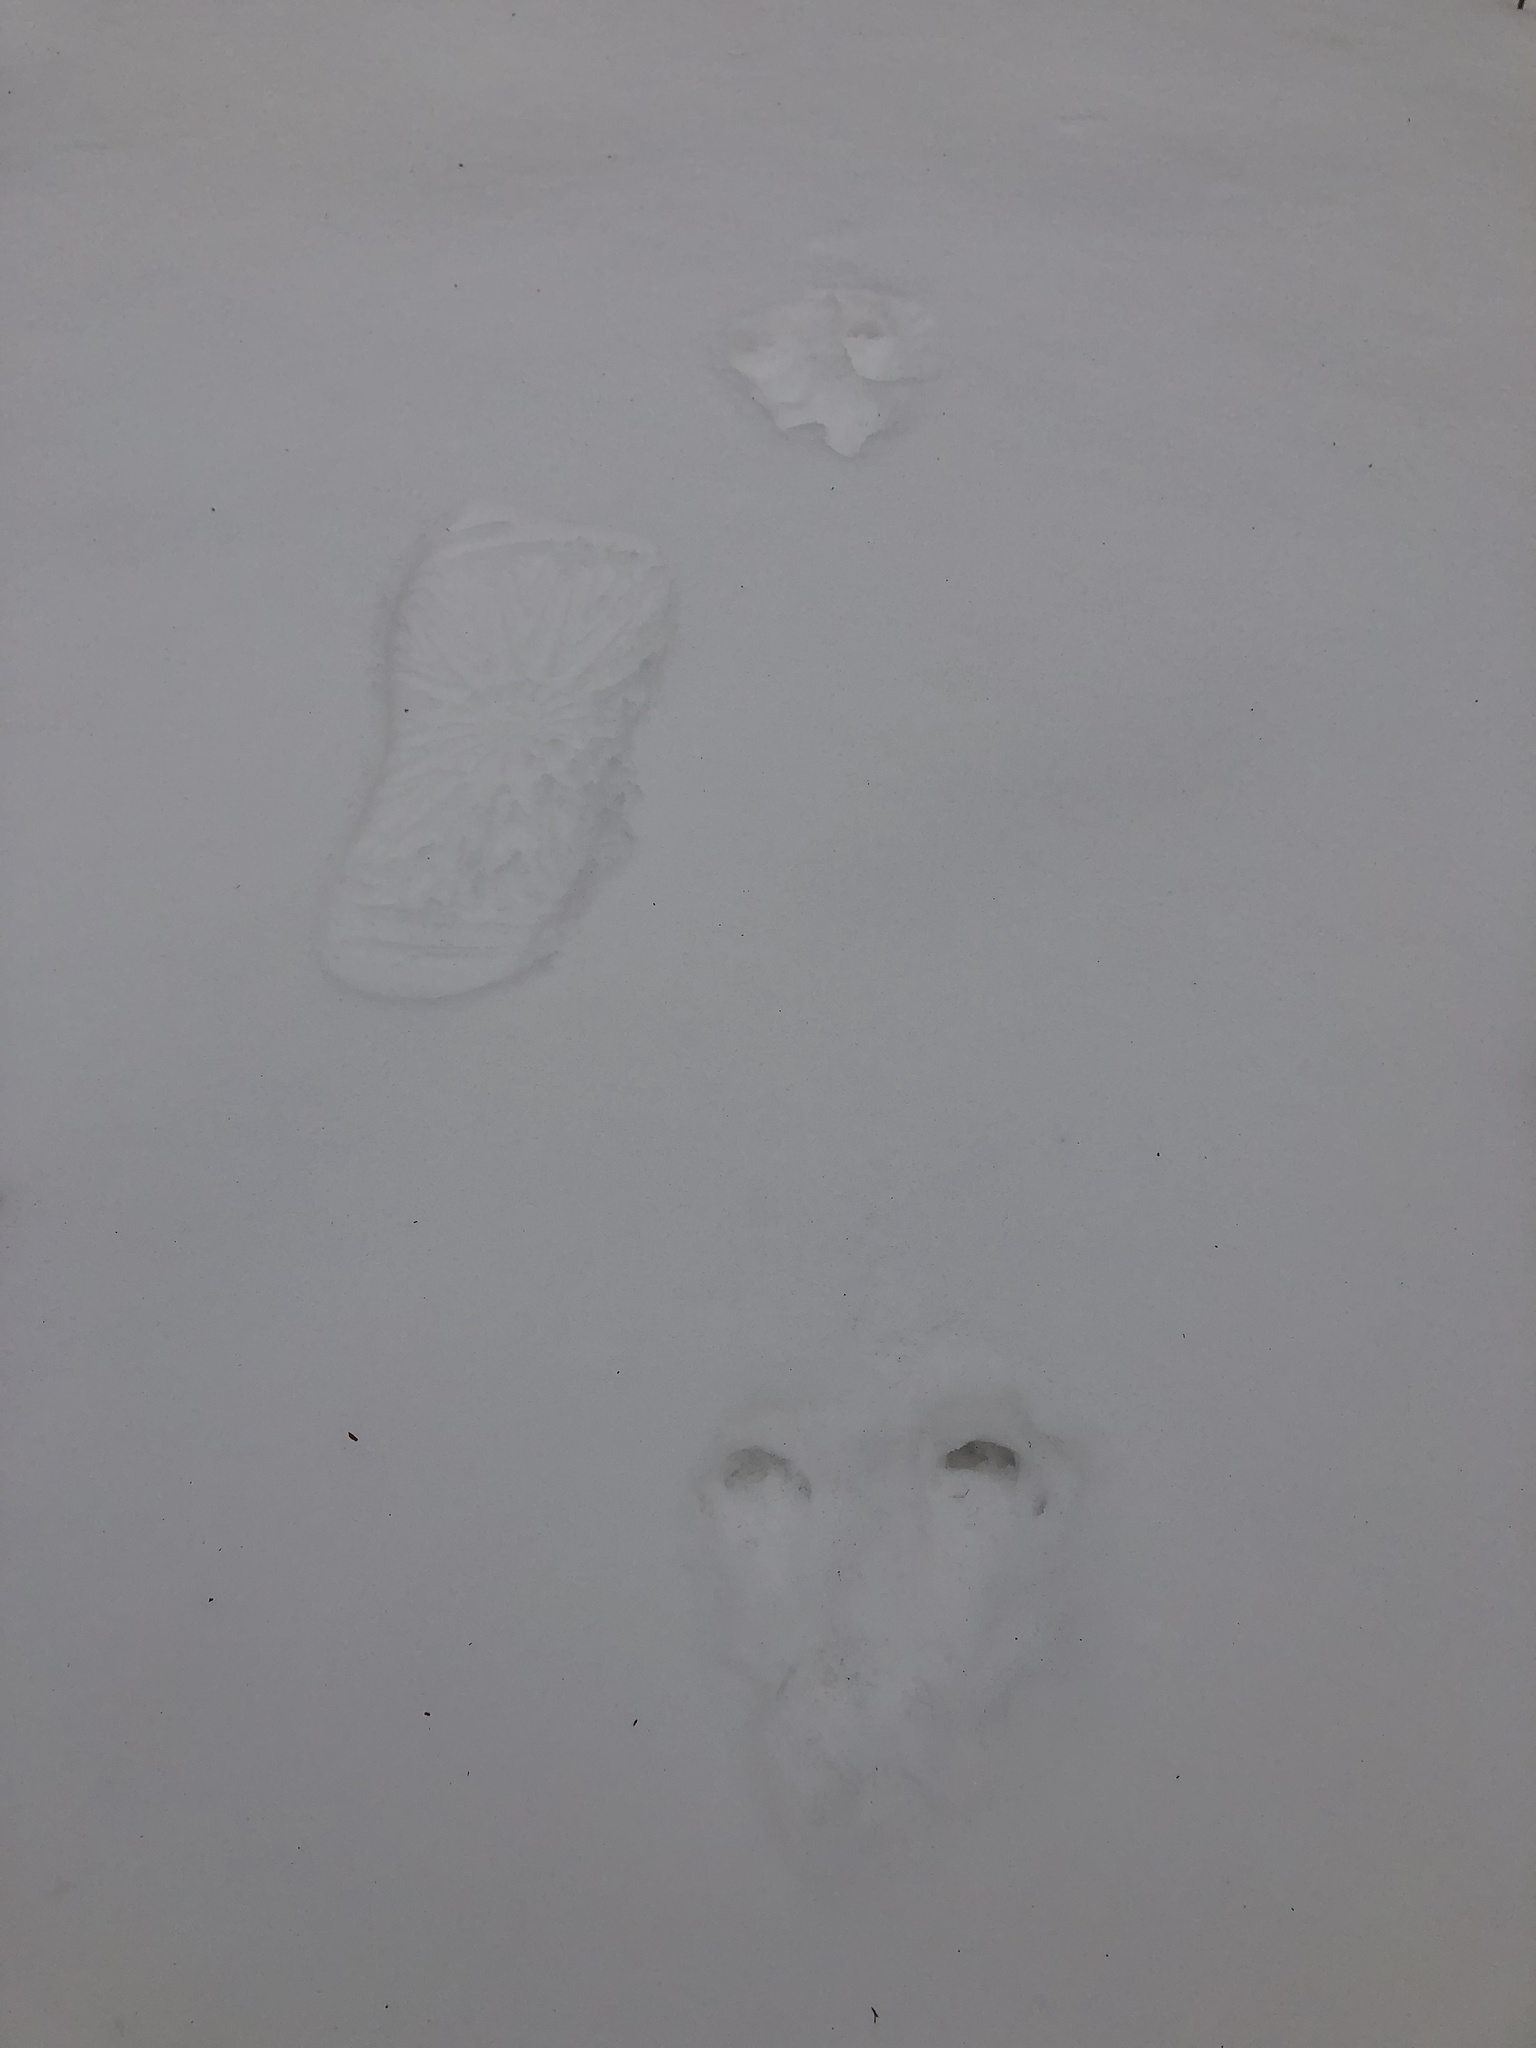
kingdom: Animalia
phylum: Chordata
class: Mammalia
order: Rodentia
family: Sciuridae
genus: Sciurus
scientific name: Sciurus carolinensis
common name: Eastern gray squirrel
